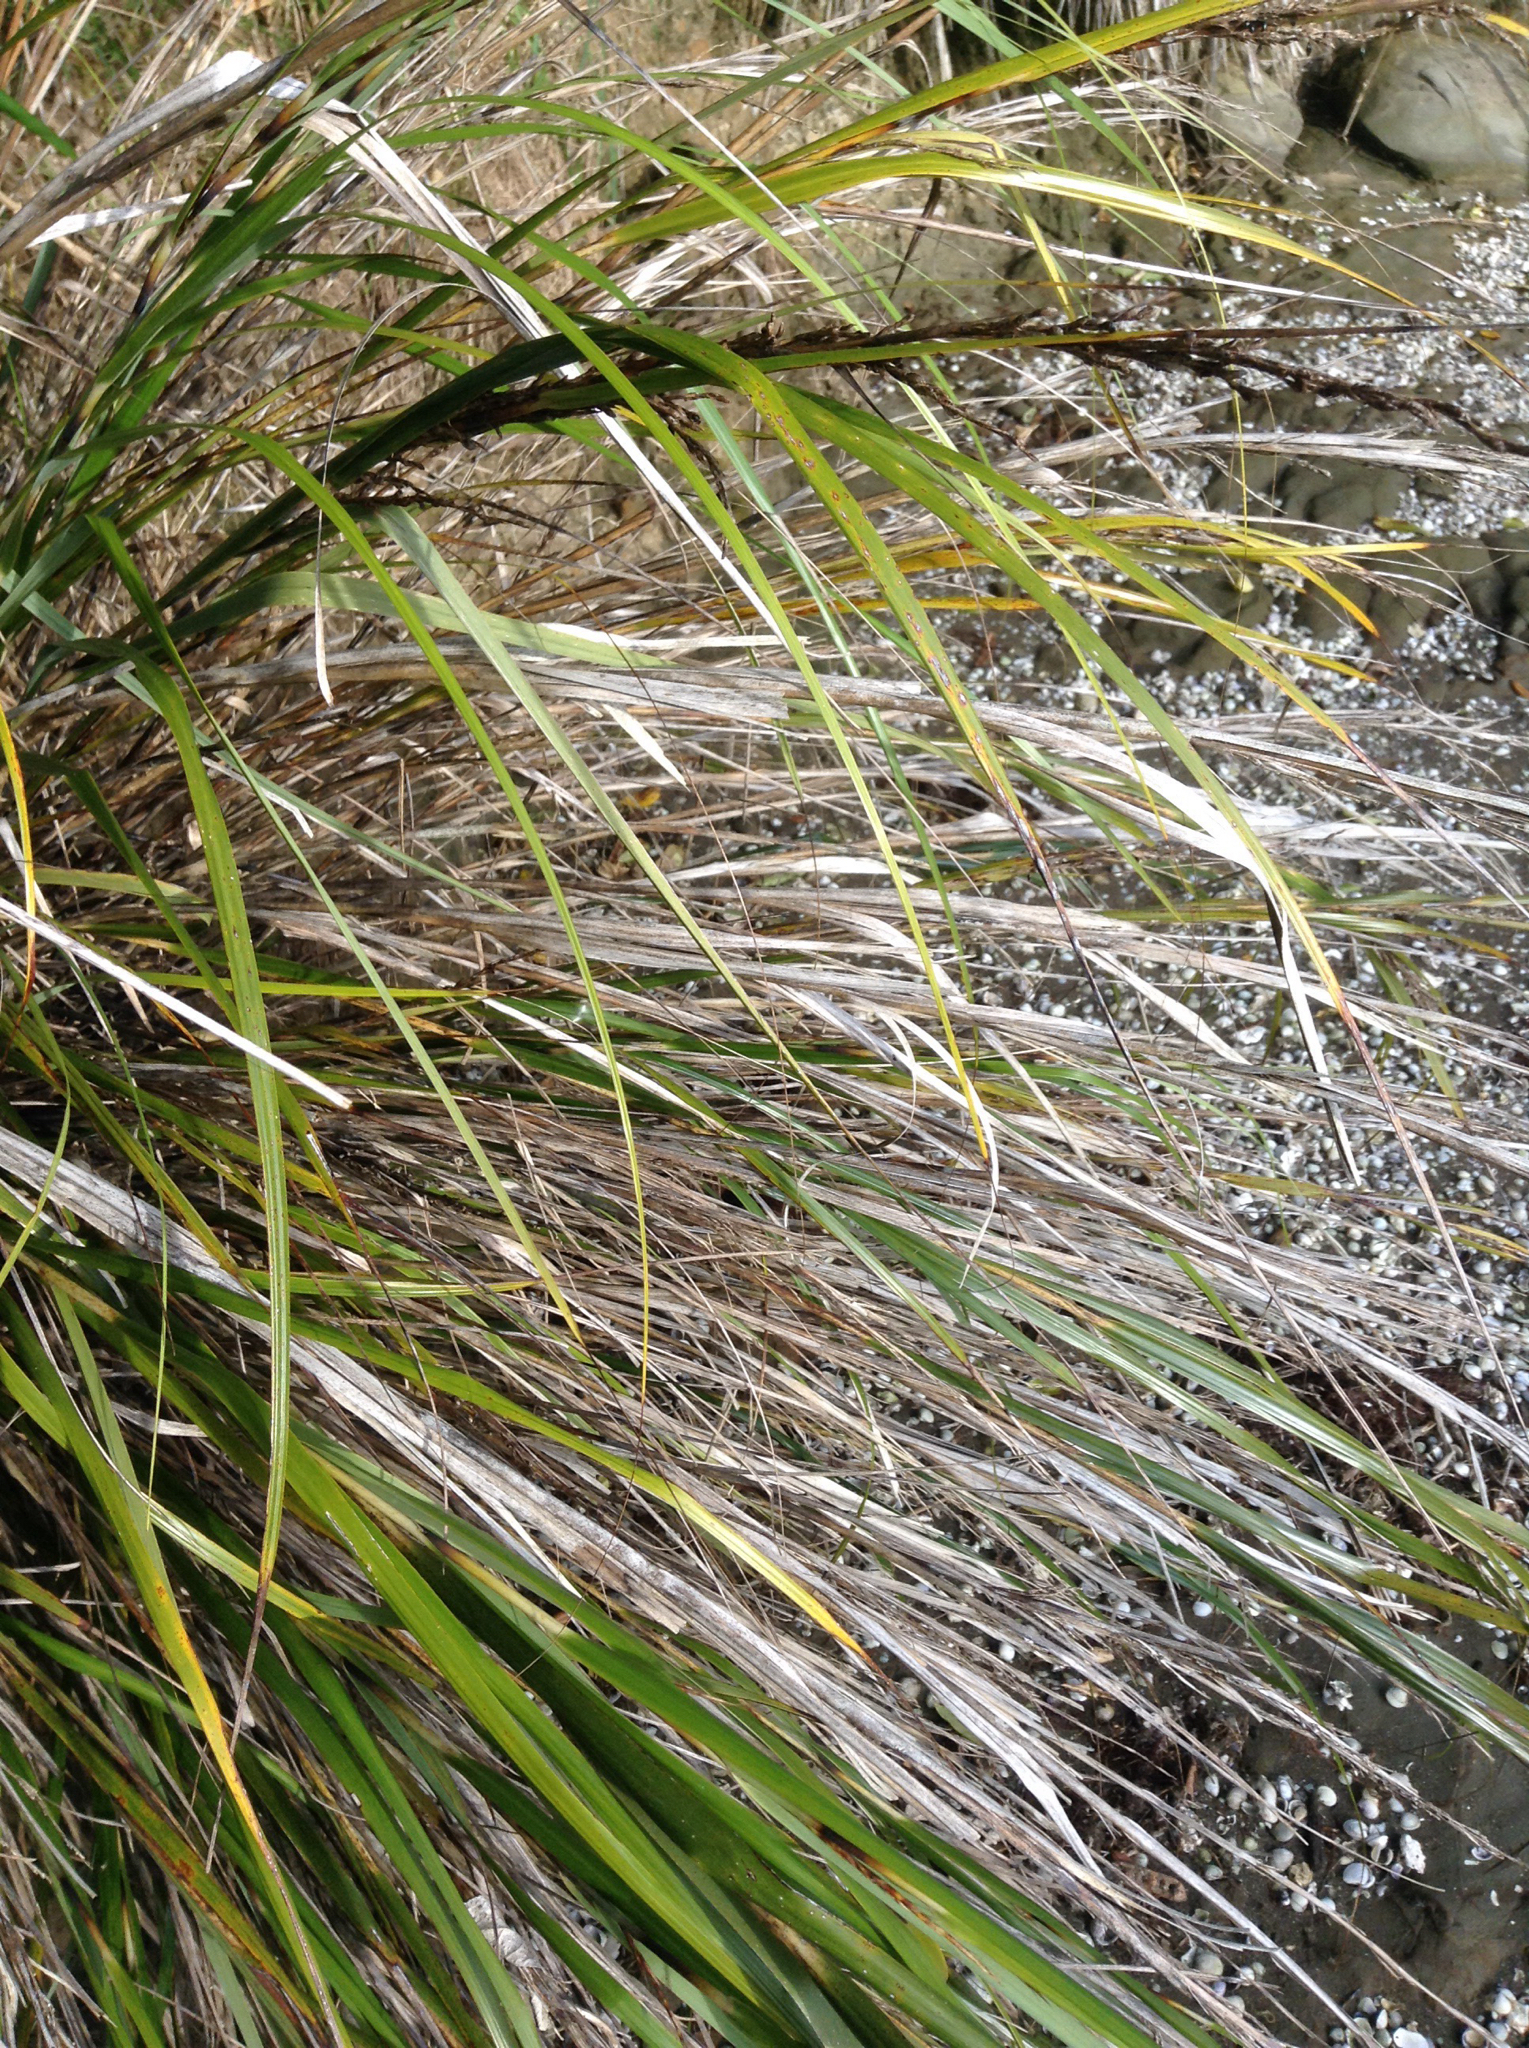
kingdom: Plantae
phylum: Tracheophyta
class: Liliopsida
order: Poales
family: Cyperaceae
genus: Gahnia
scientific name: Gahnia lacera
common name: Sawsedge
